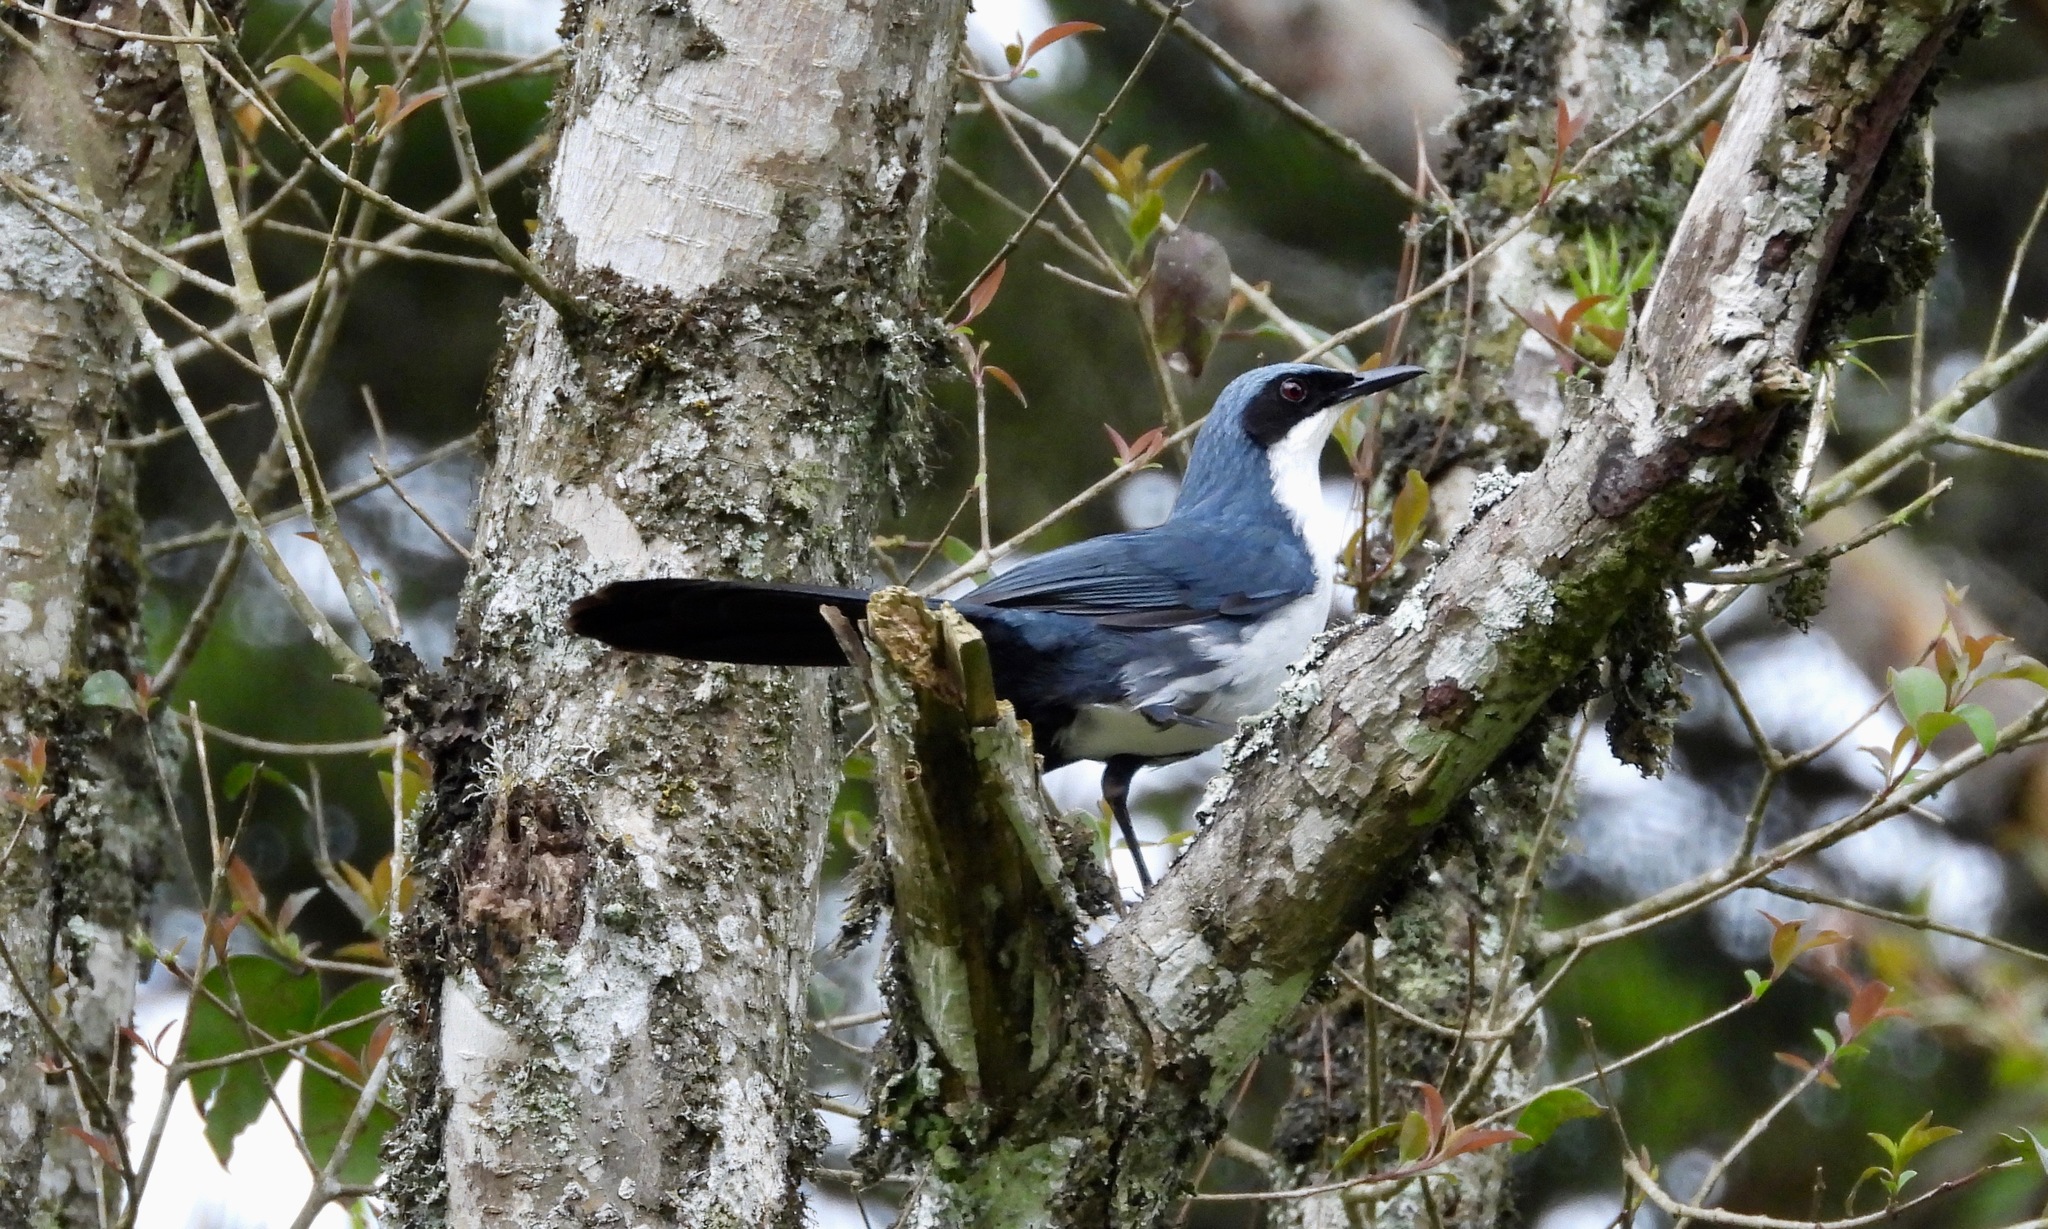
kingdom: Animalia
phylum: Chordata
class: Aves
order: Passeriformes
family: Mimidae
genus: Melanotis
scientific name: Melanotis hypoleucus
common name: Blue-and-white mockingbird
